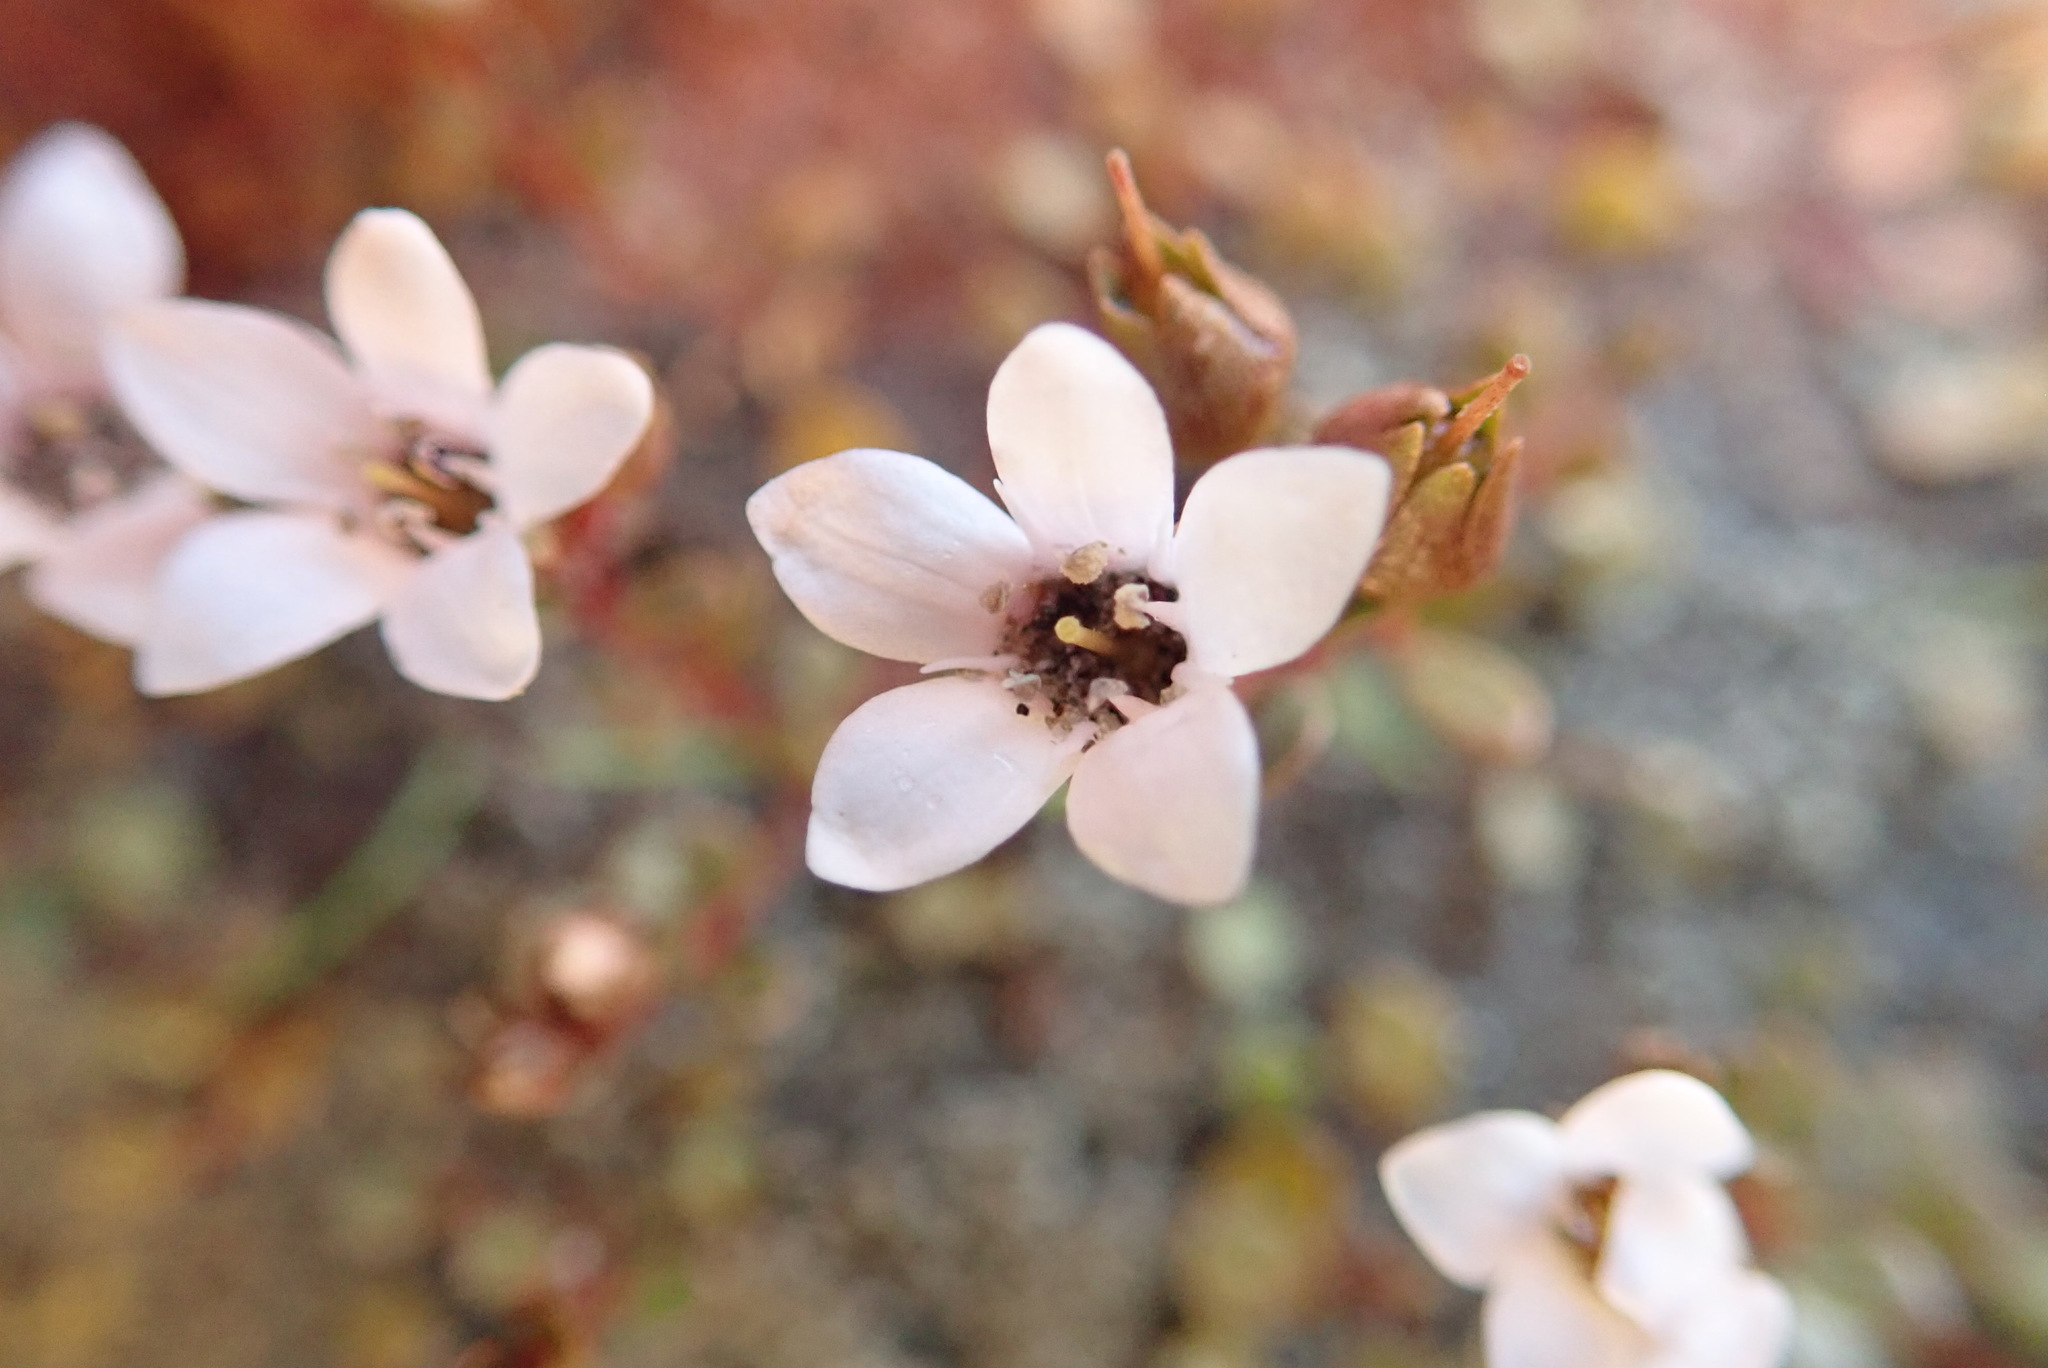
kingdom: Plantae
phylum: Tracheophyta
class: Magnoliopsida
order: Ericales
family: Primulaceae
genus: Samolus
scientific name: Samolus repens
